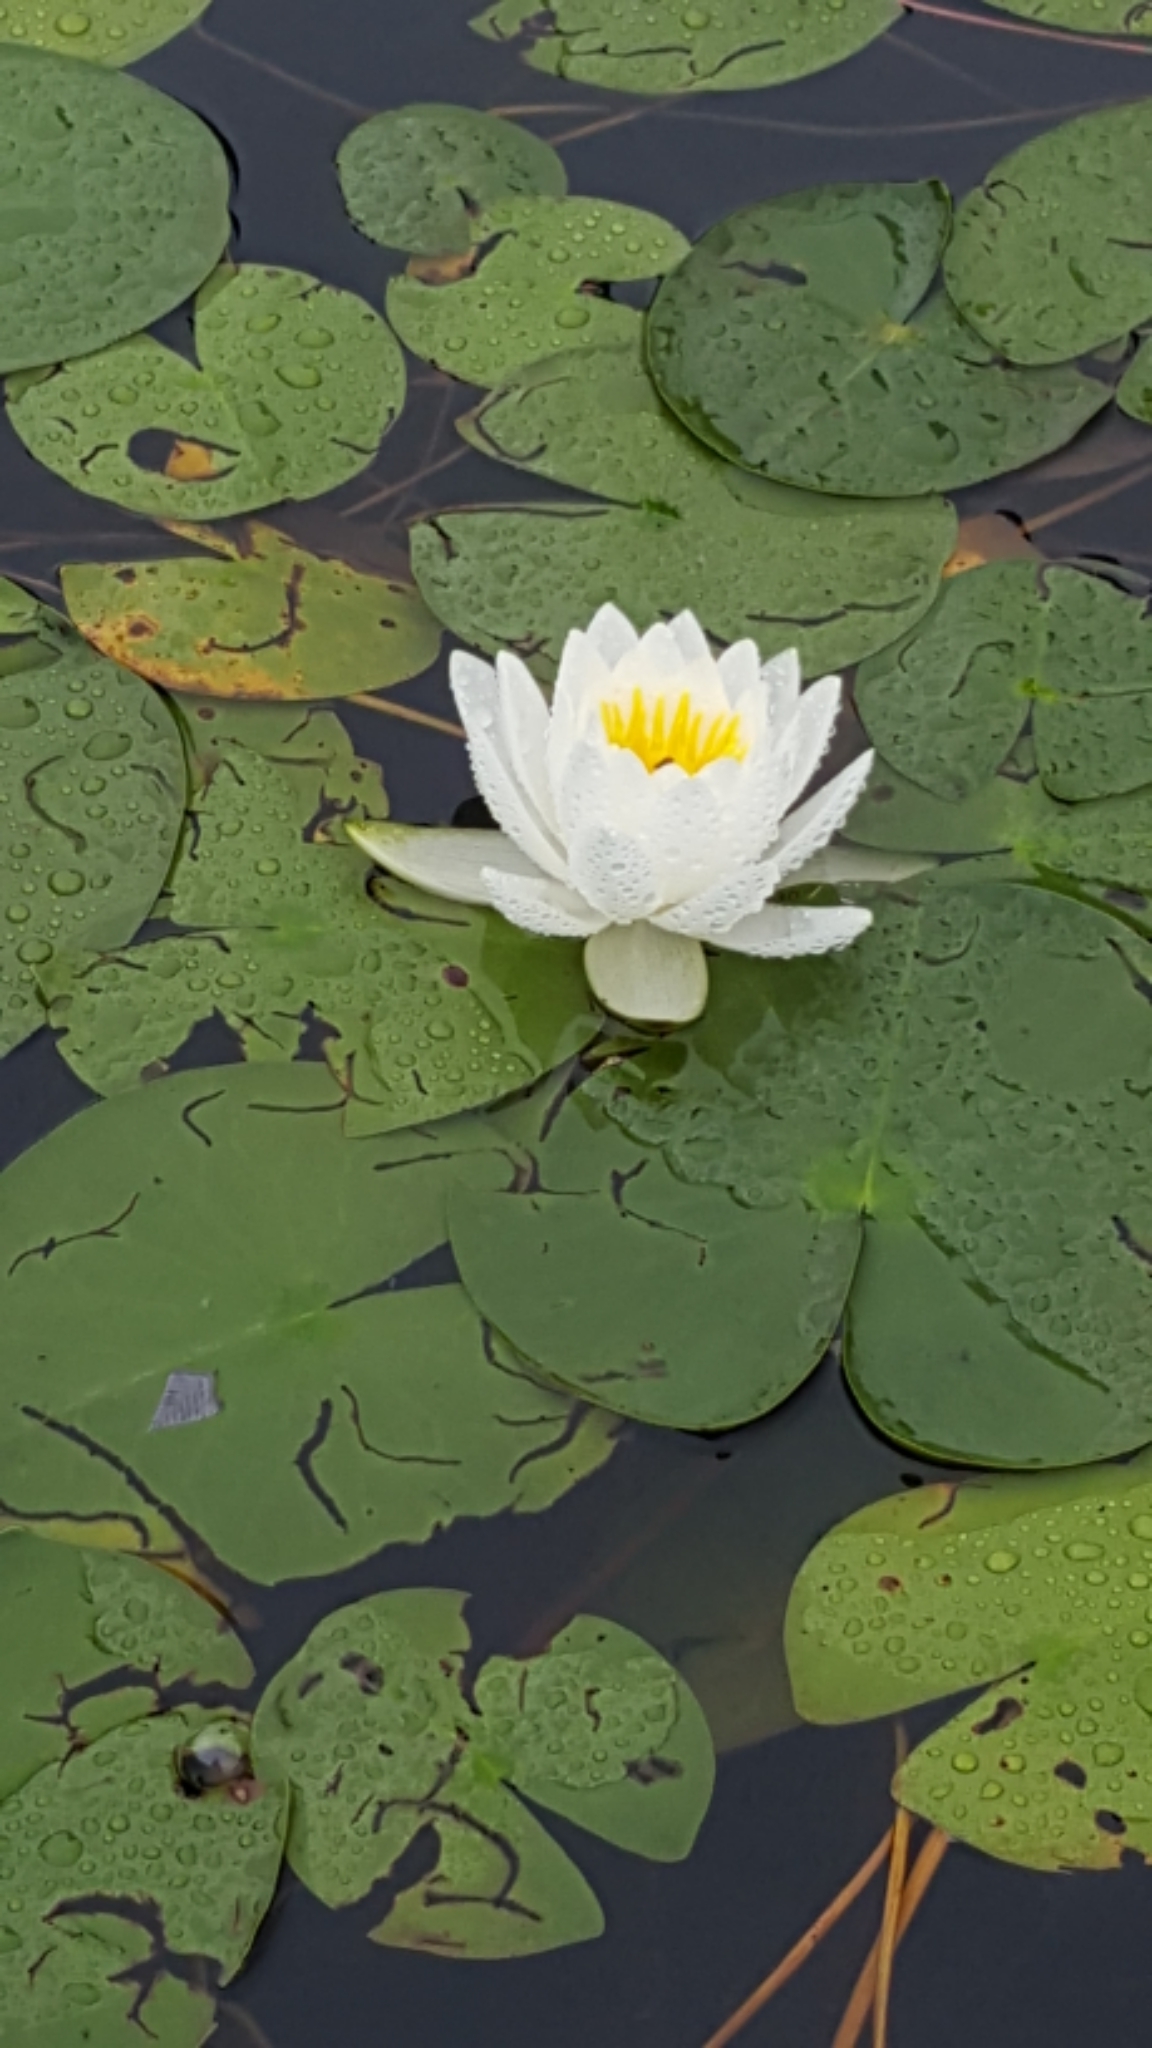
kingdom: Plantae
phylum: Tracheophyta
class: Magnoliopsida
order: Nymphaeales
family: Nymphaeaceae
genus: Nymphaea
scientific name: Nymphaea odorata
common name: Fragrant water-lily
